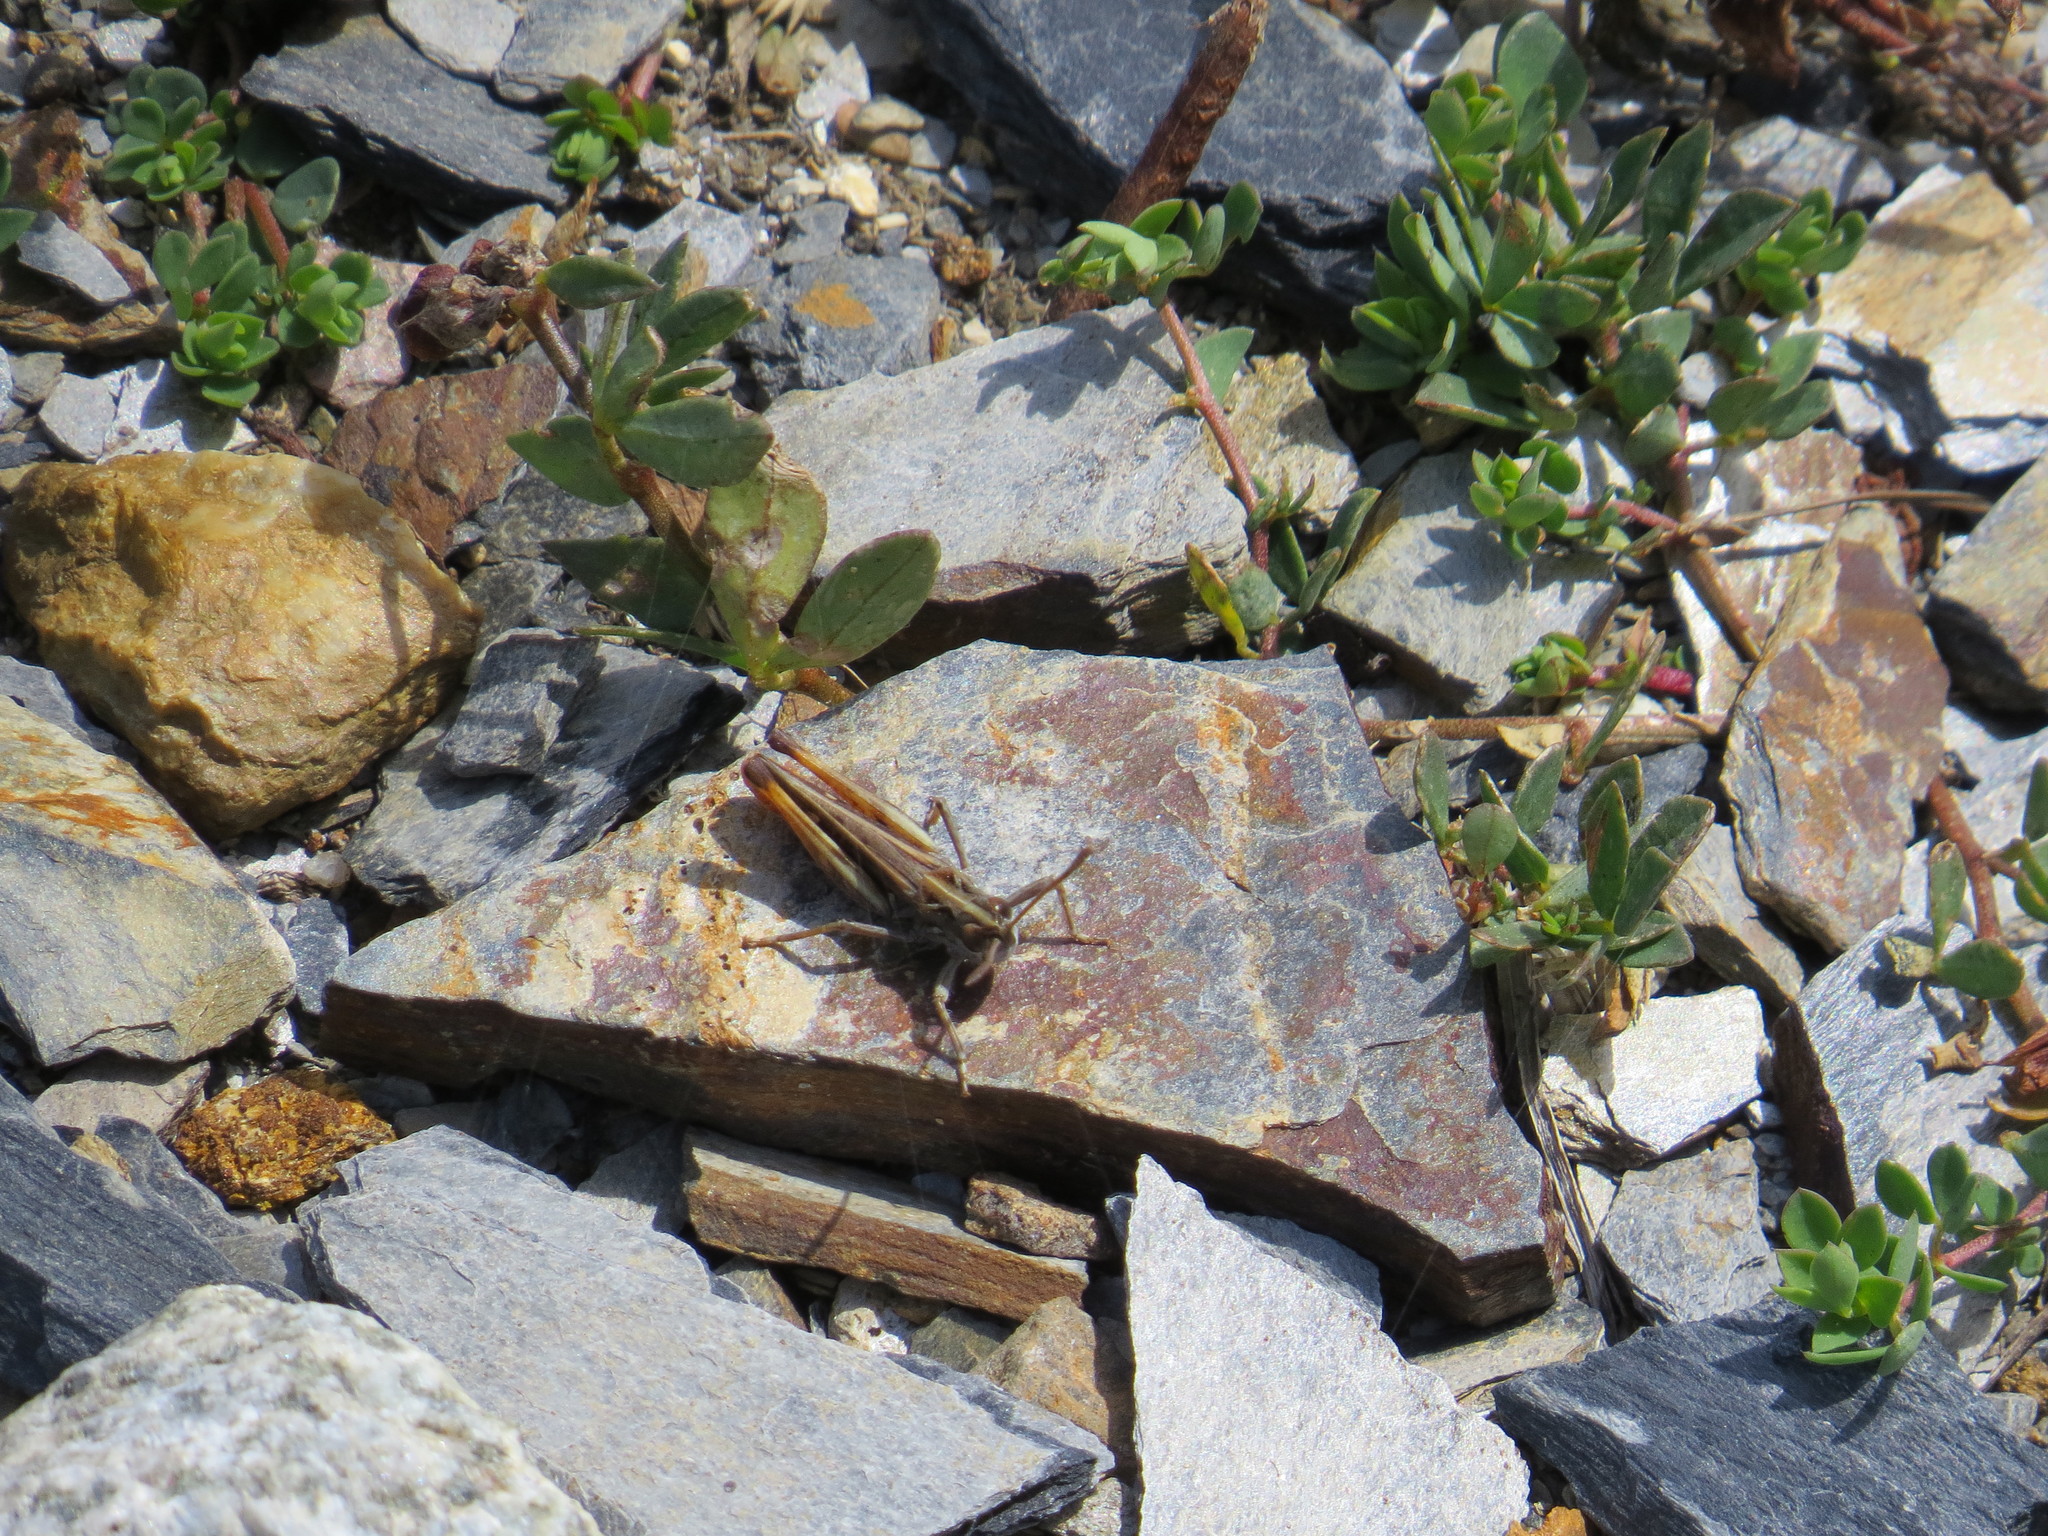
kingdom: Animalia
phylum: Arthropoda
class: Insecta
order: Orthoptera
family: Acrididae
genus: Myrmeleotettix
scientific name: Myrmeleotettix maculatus
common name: Mottled grasshopper
